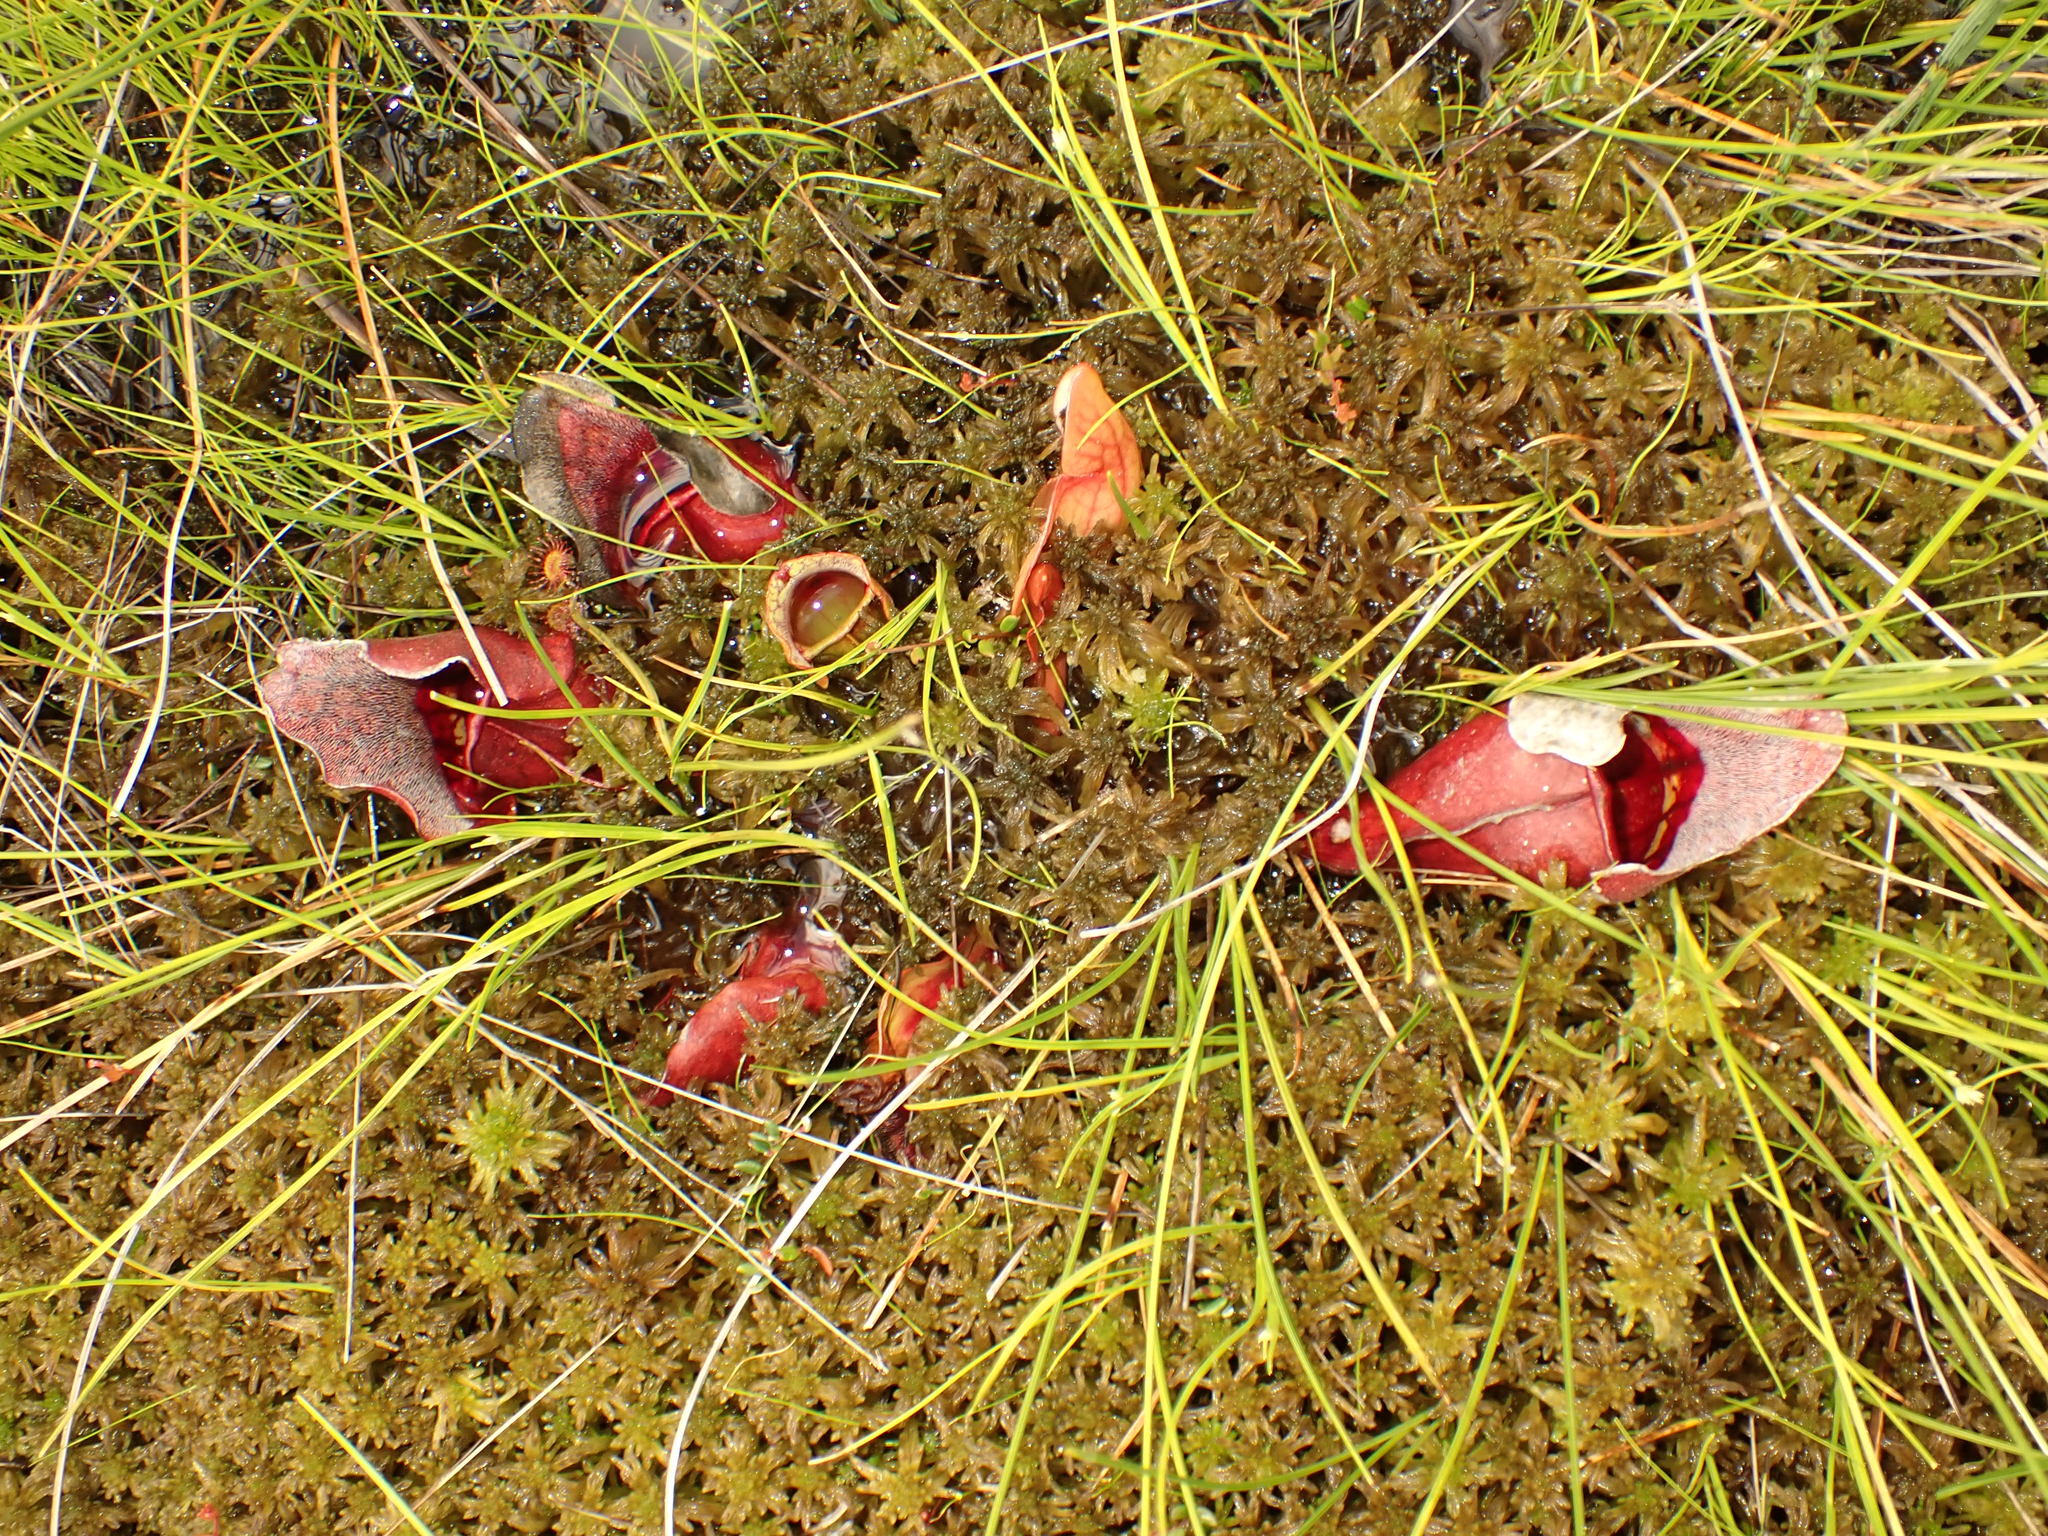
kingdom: Plantae
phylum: Tracheophyta
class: Magnoliopsida
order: Ericales
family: Sarraceniaceae
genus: Sarracenia
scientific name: Sarracenia purpurea
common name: Pitcherplant
